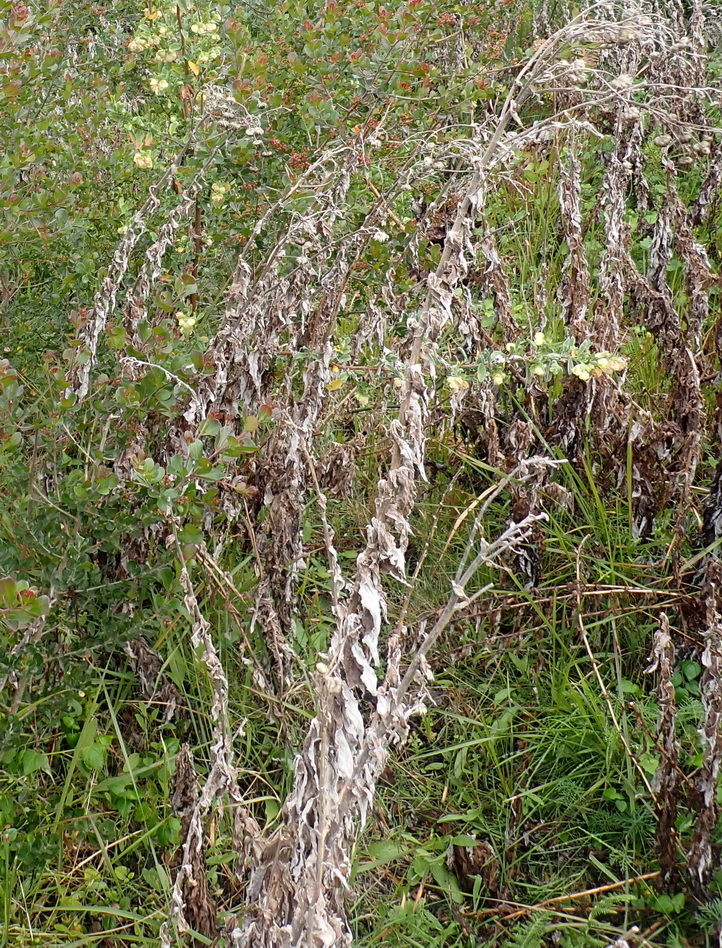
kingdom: Plantae
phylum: Tracheophyta
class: Magnoliopsida
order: Asterales
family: Asteraceae
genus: Helichrysum
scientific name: Helichrysum foetidum
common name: Stinking everlasting
